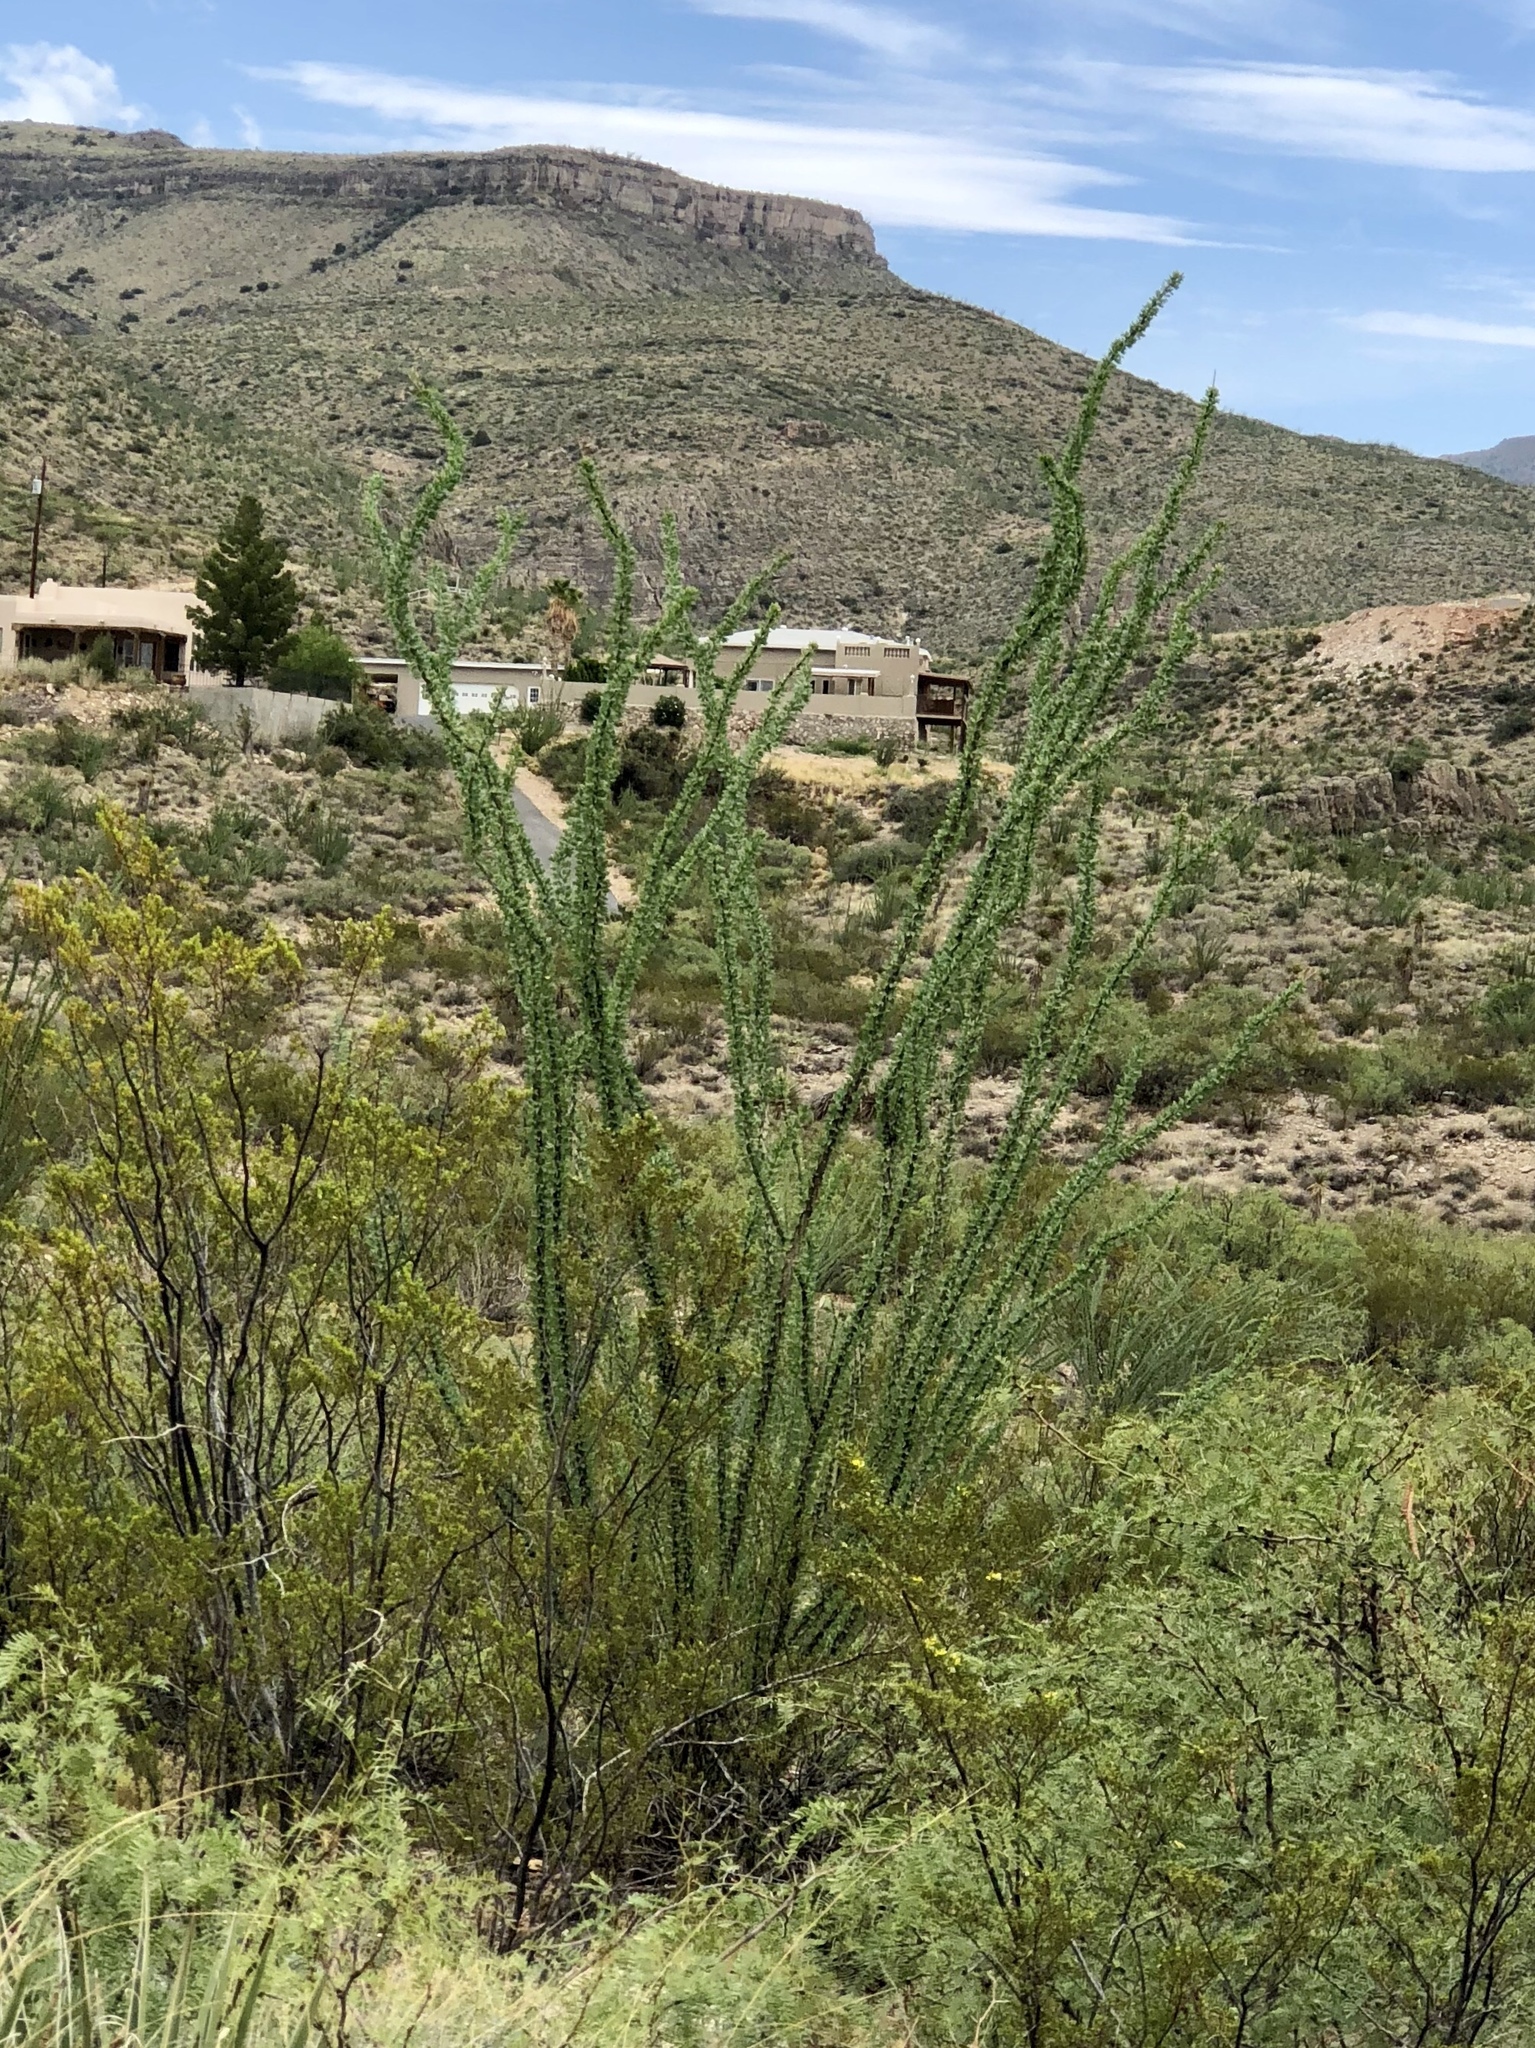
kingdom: Plantae
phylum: Tracheophyta
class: Magnoliopsida
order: Ericales
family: Fouquieriaceae
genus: Fouquieria
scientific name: Fouquieria splendens
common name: Vine-cactus
